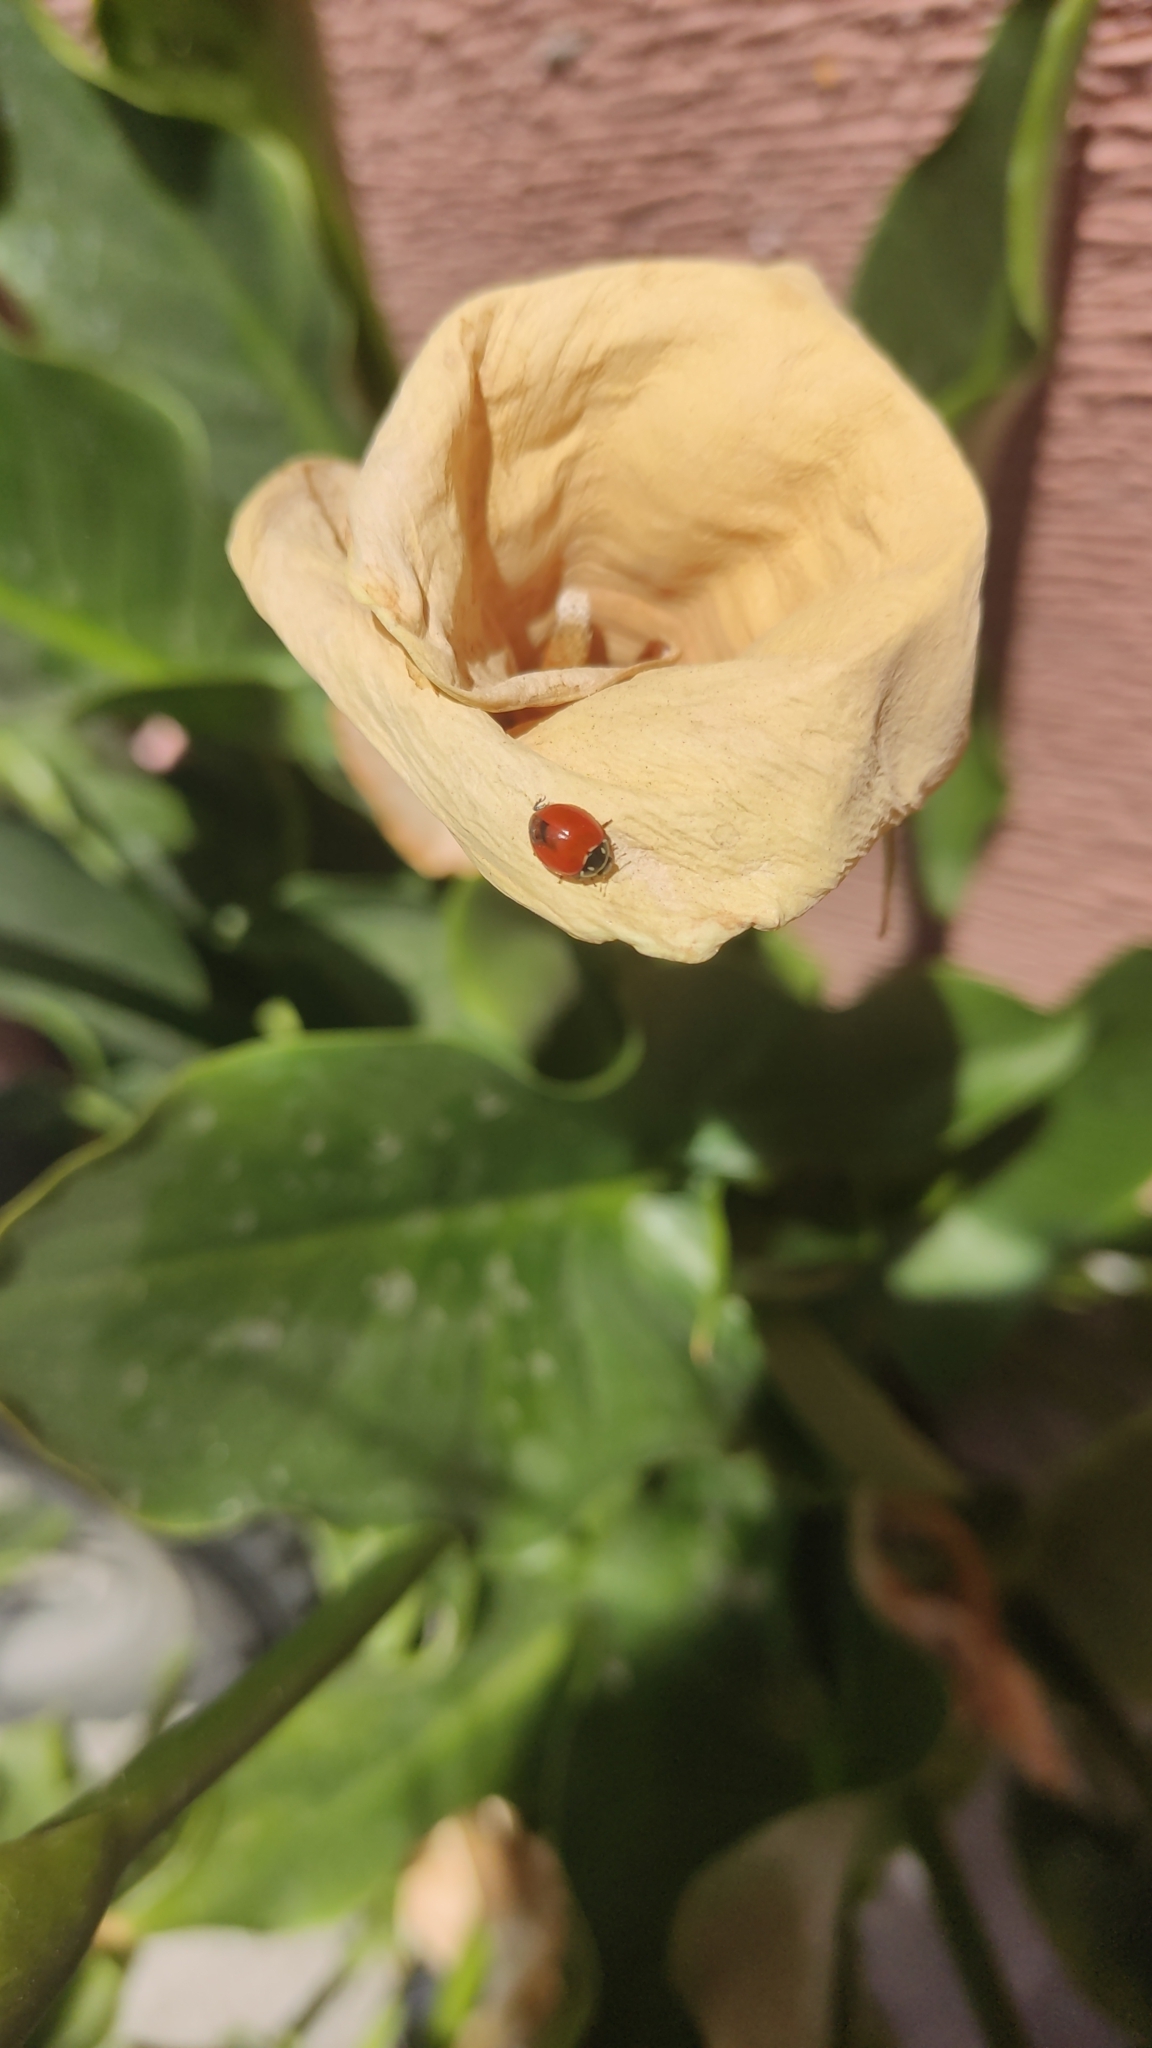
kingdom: Animalia
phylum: Arthropoda
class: Insecta
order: Coleoptera
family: Coccinellidae
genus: Cycloneda
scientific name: Cycloneda emarginata
